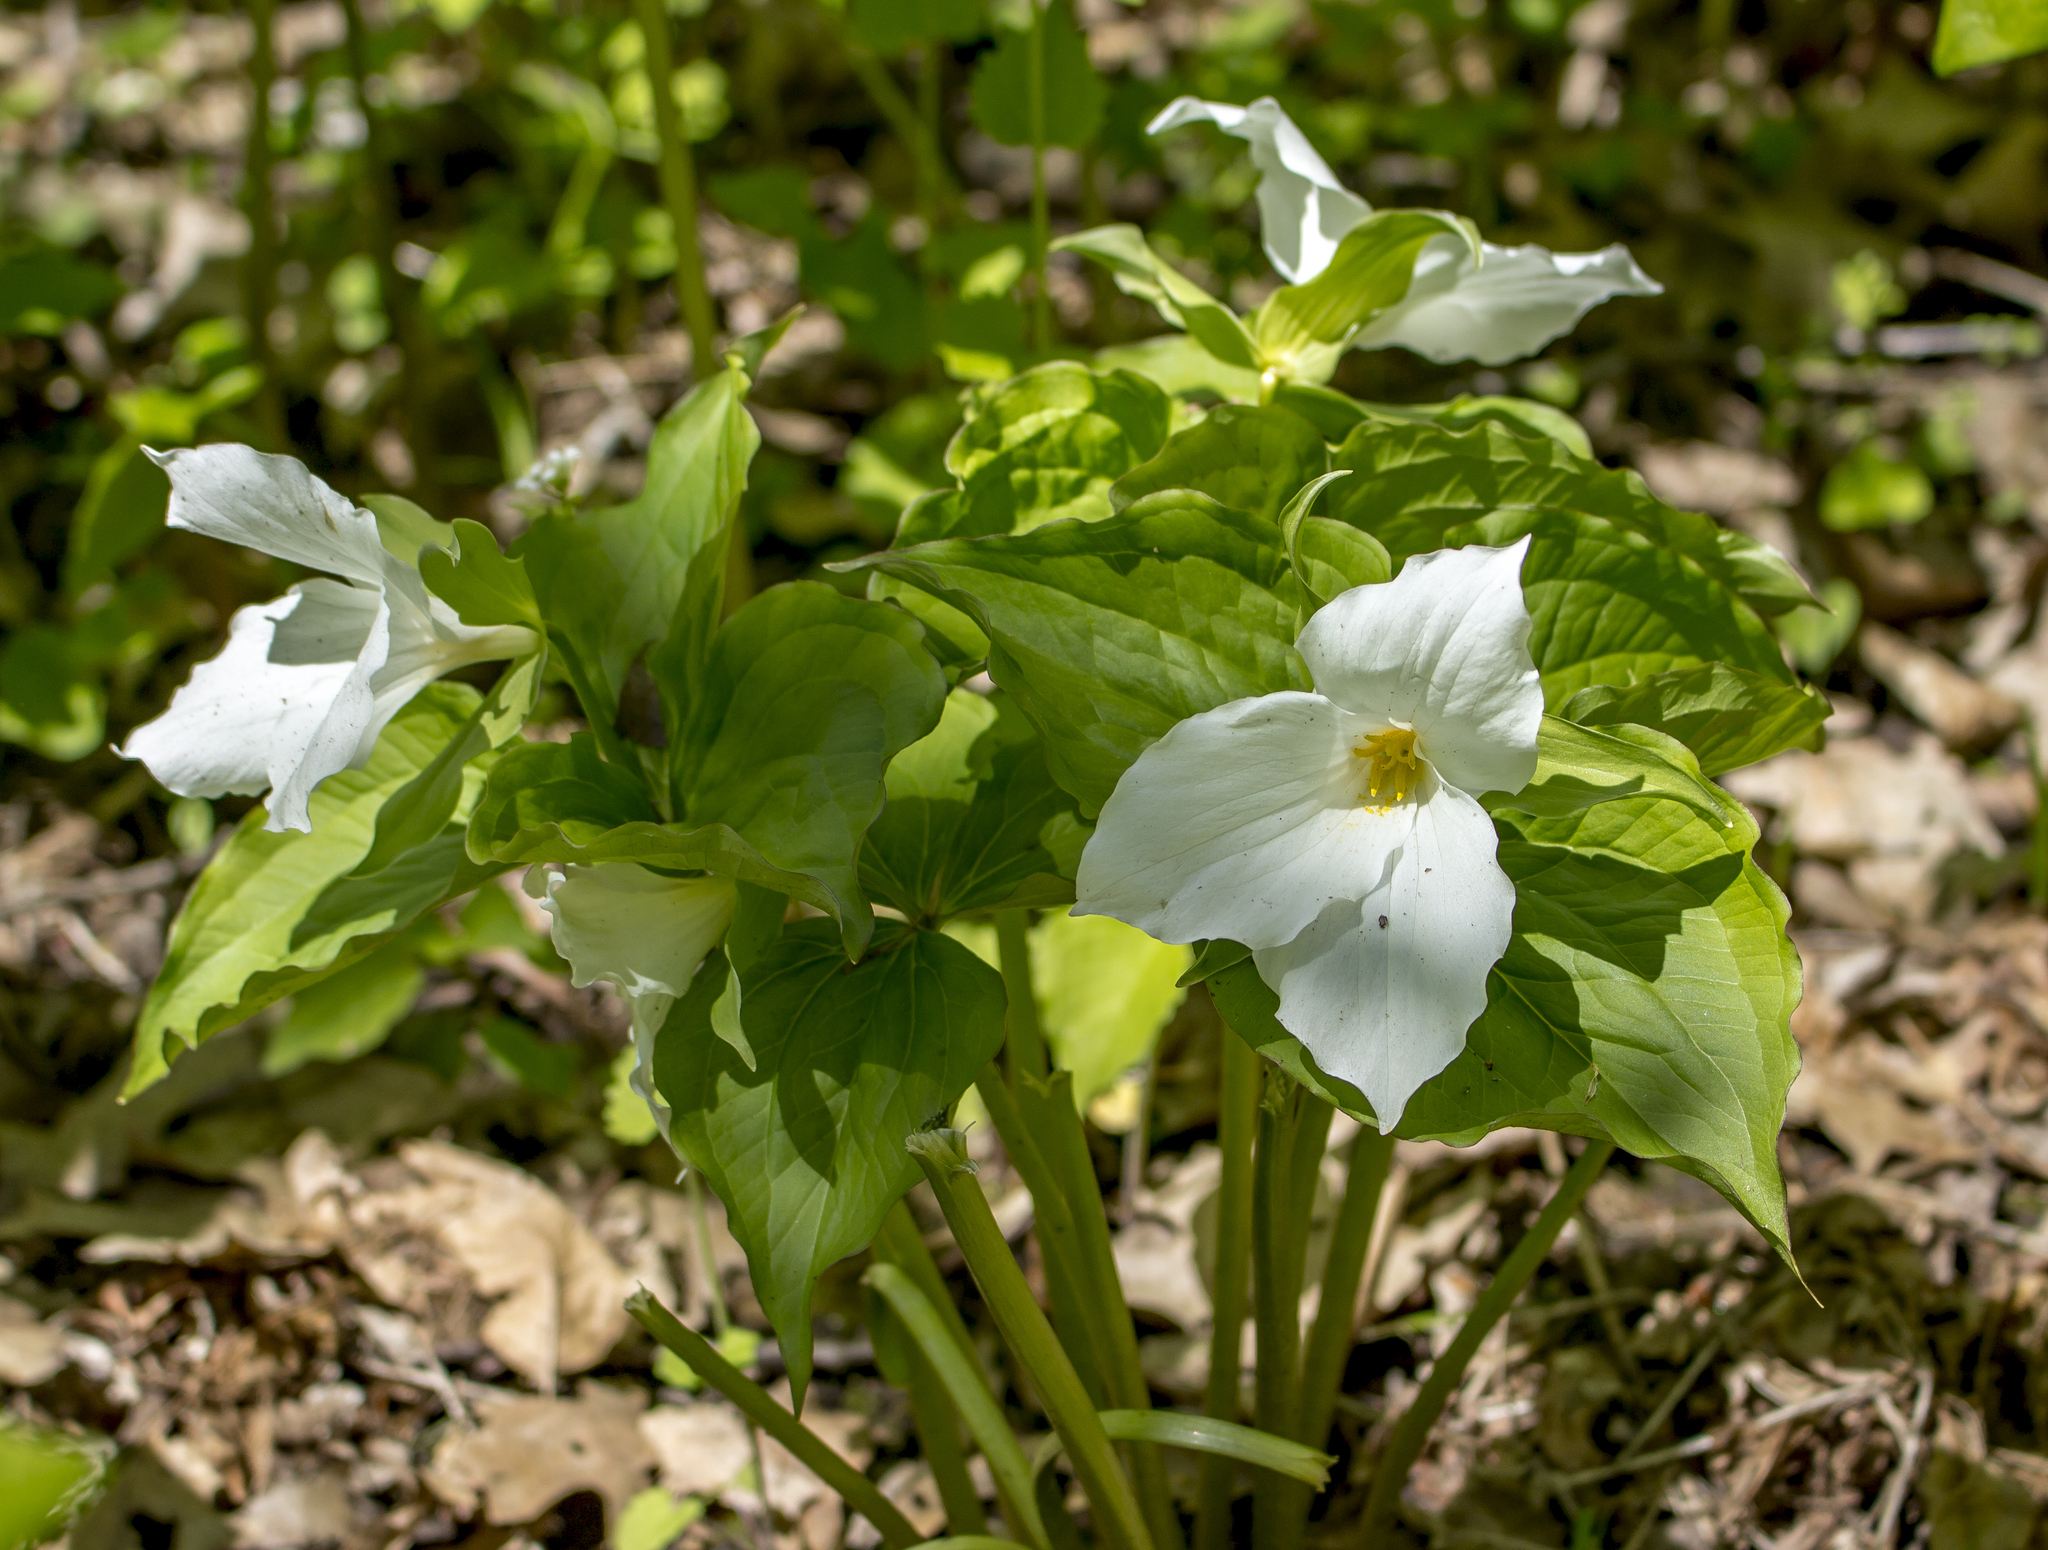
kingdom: Plantae
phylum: Tracheophyta
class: Liliopsida
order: Liliales
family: Melanthiaceae
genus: Trillium
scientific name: Trillium grandiflorum
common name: Great white trillium
